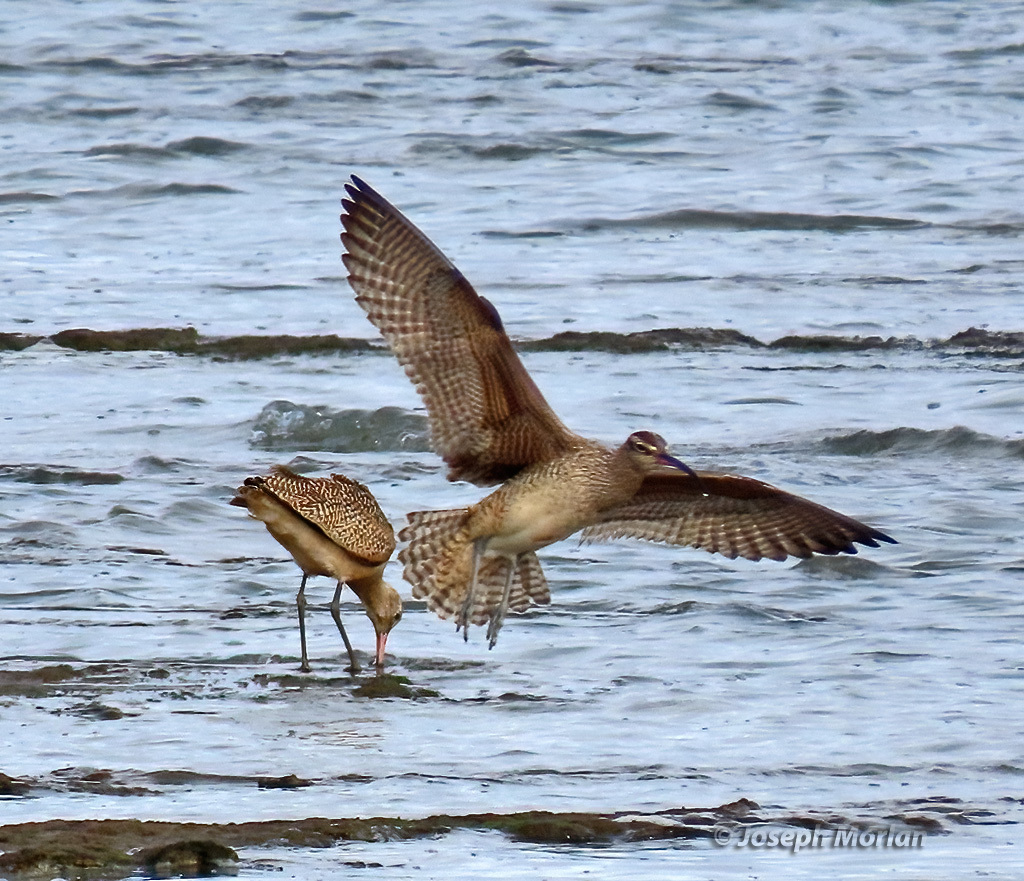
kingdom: Animalia
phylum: Chordata
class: Aves
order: Charadriiformes
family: Scolopacidae
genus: Numenius
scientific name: Numenius phaeopus
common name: Whimbrel
